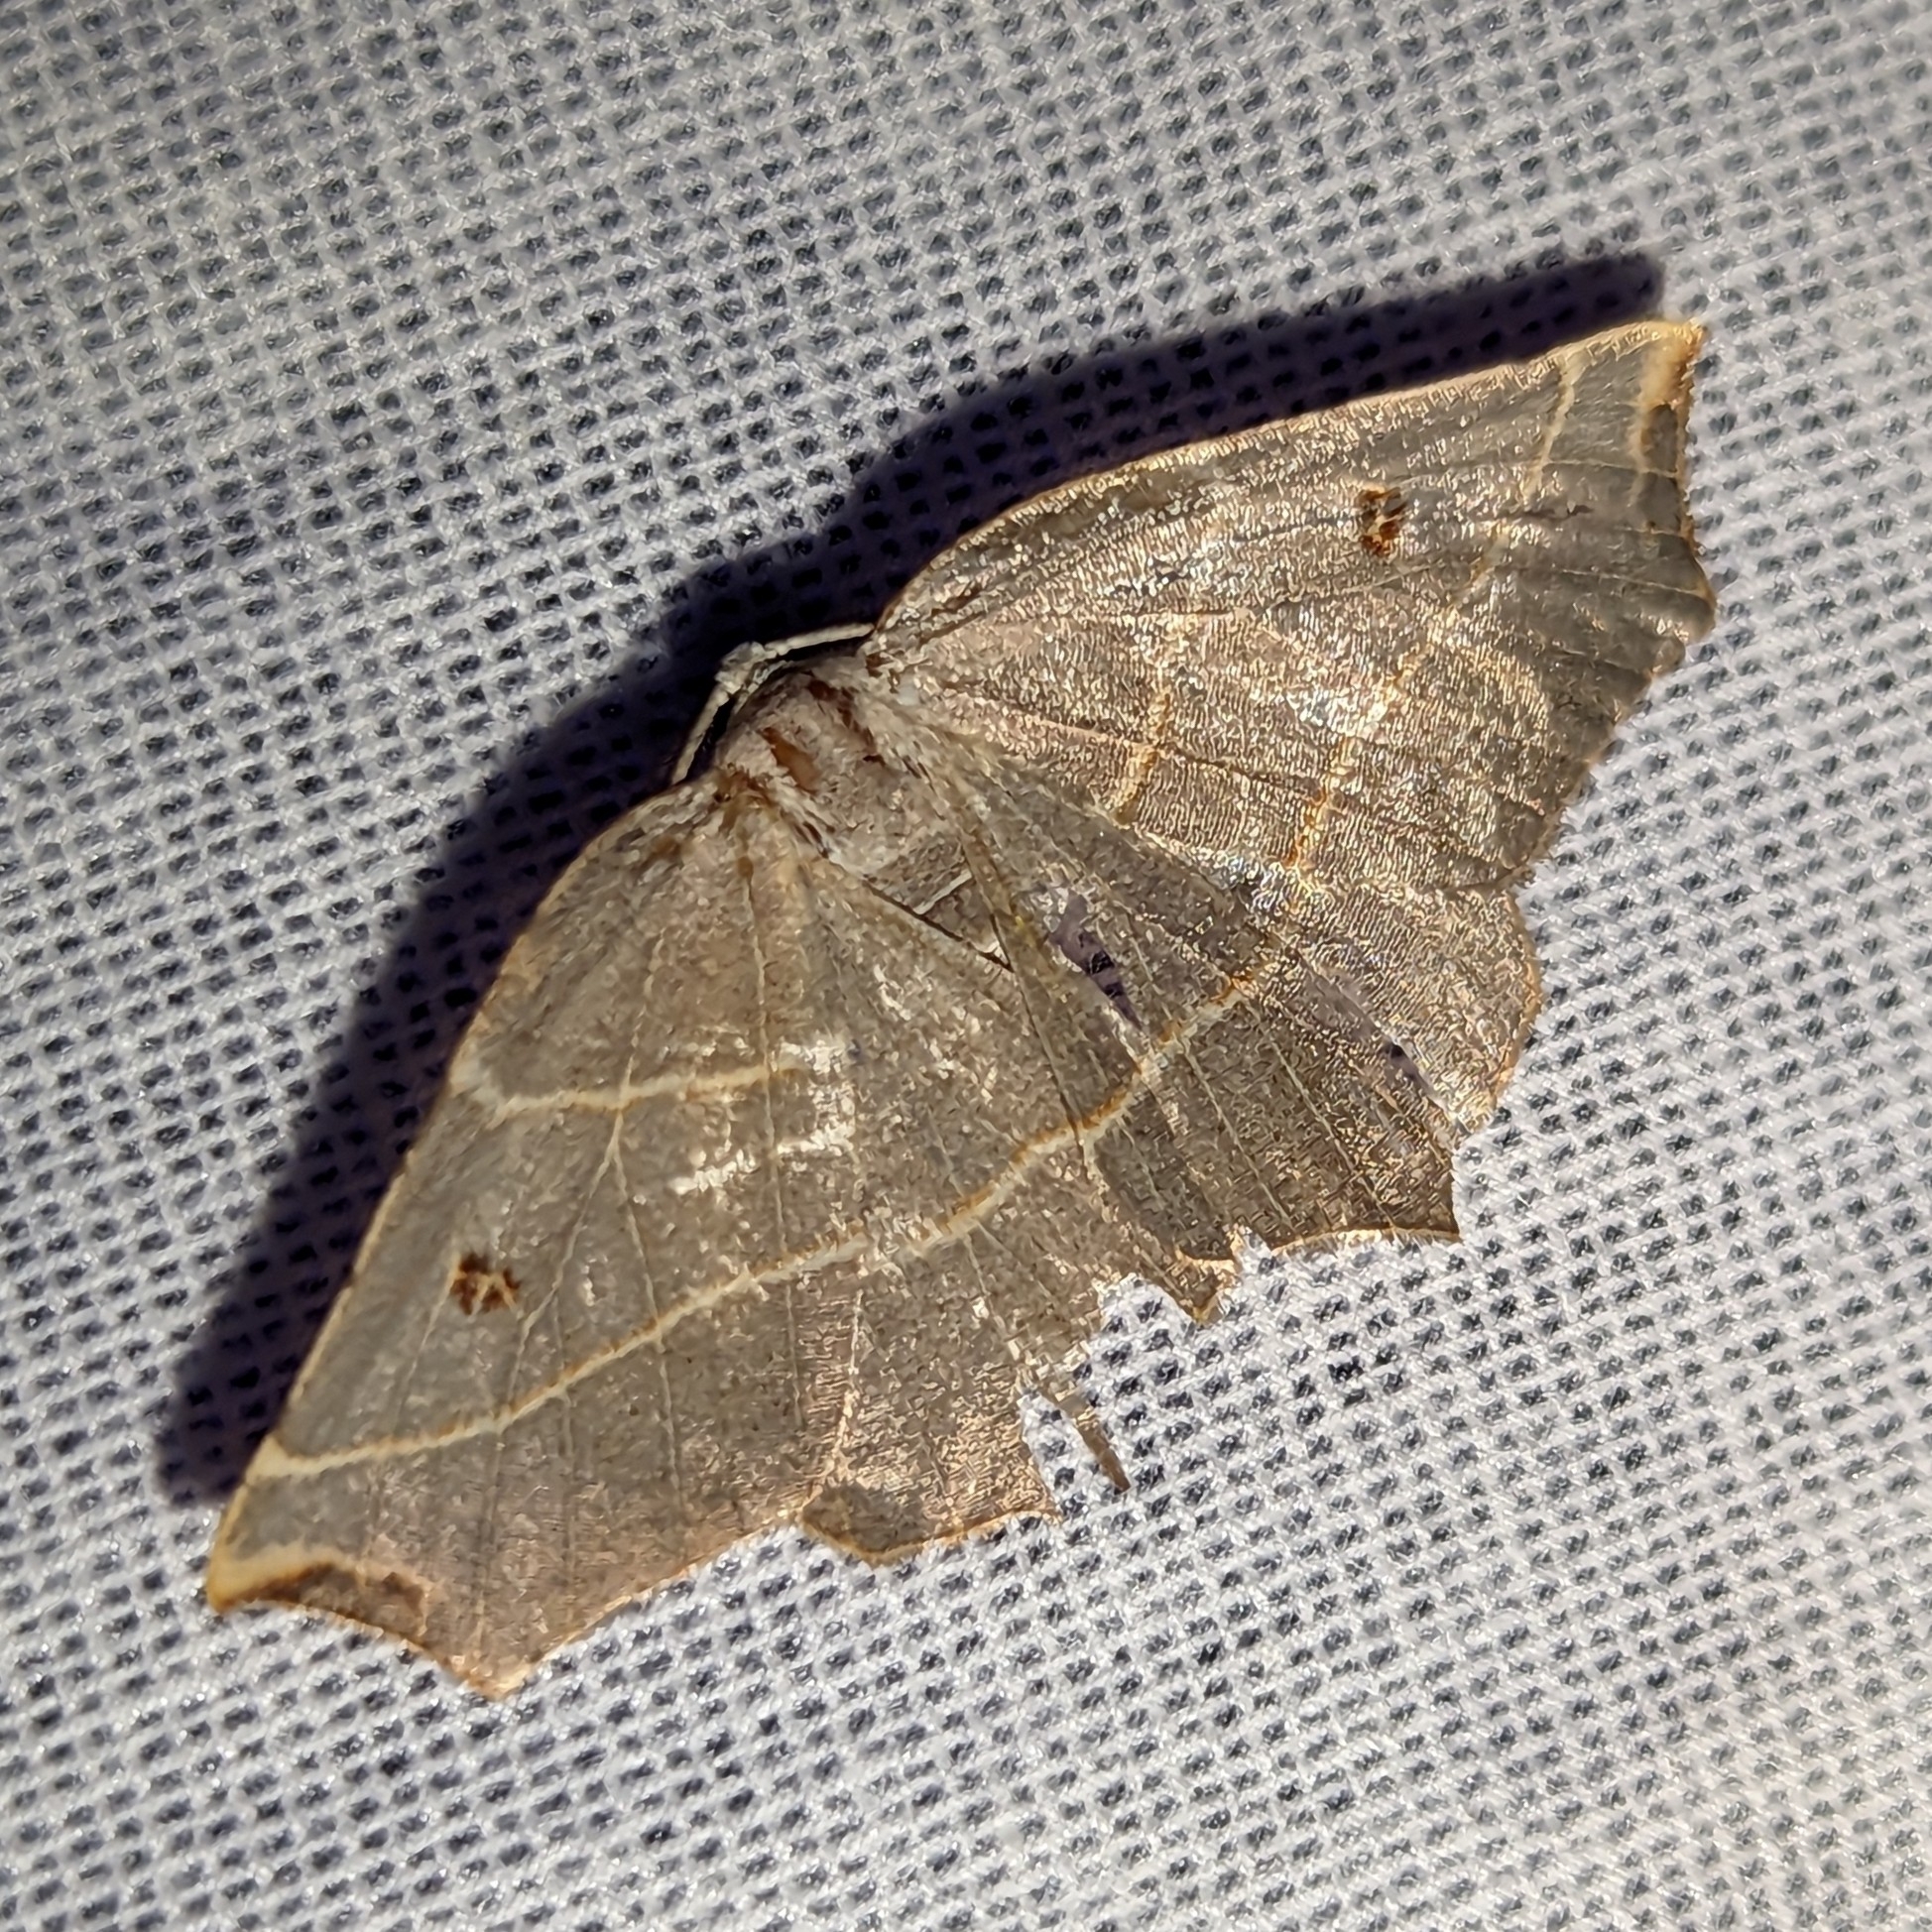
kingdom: Animalia
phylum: Arthropoda
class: Insecta
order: Lepidoptera
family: Geometridae
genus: Metanema
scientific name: Metanema inatomaria
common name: Pale metanema
